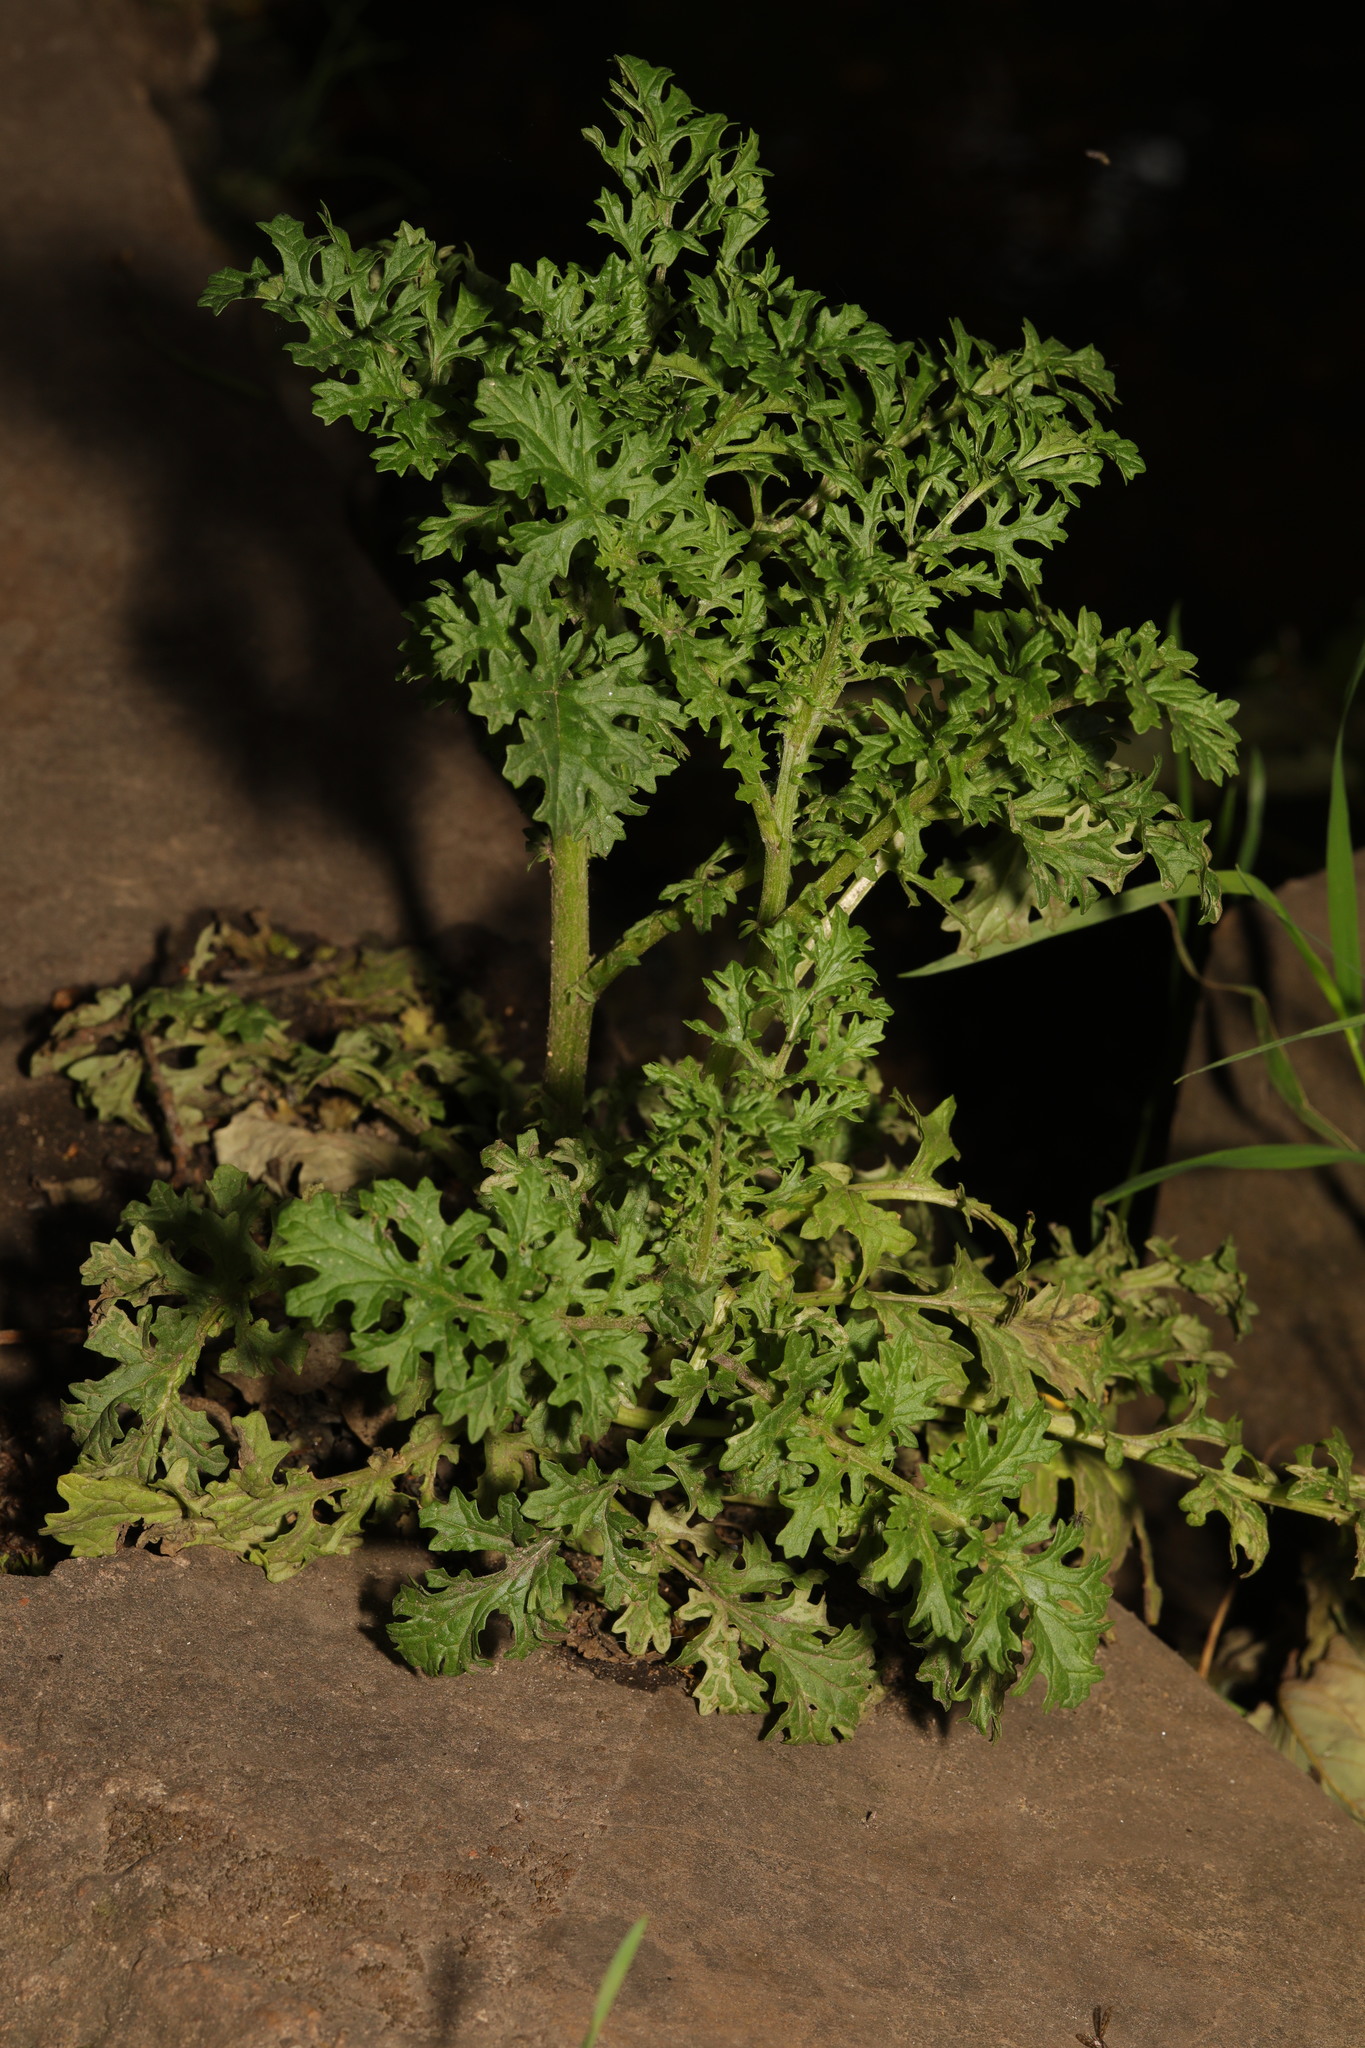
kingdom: Plantae
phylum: Tracheophyta
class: Magnoliopsida
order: Asterales
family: Asteraceae
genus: Jacobaea
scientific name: Jacobaea vulgaris
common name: Stinking willie
